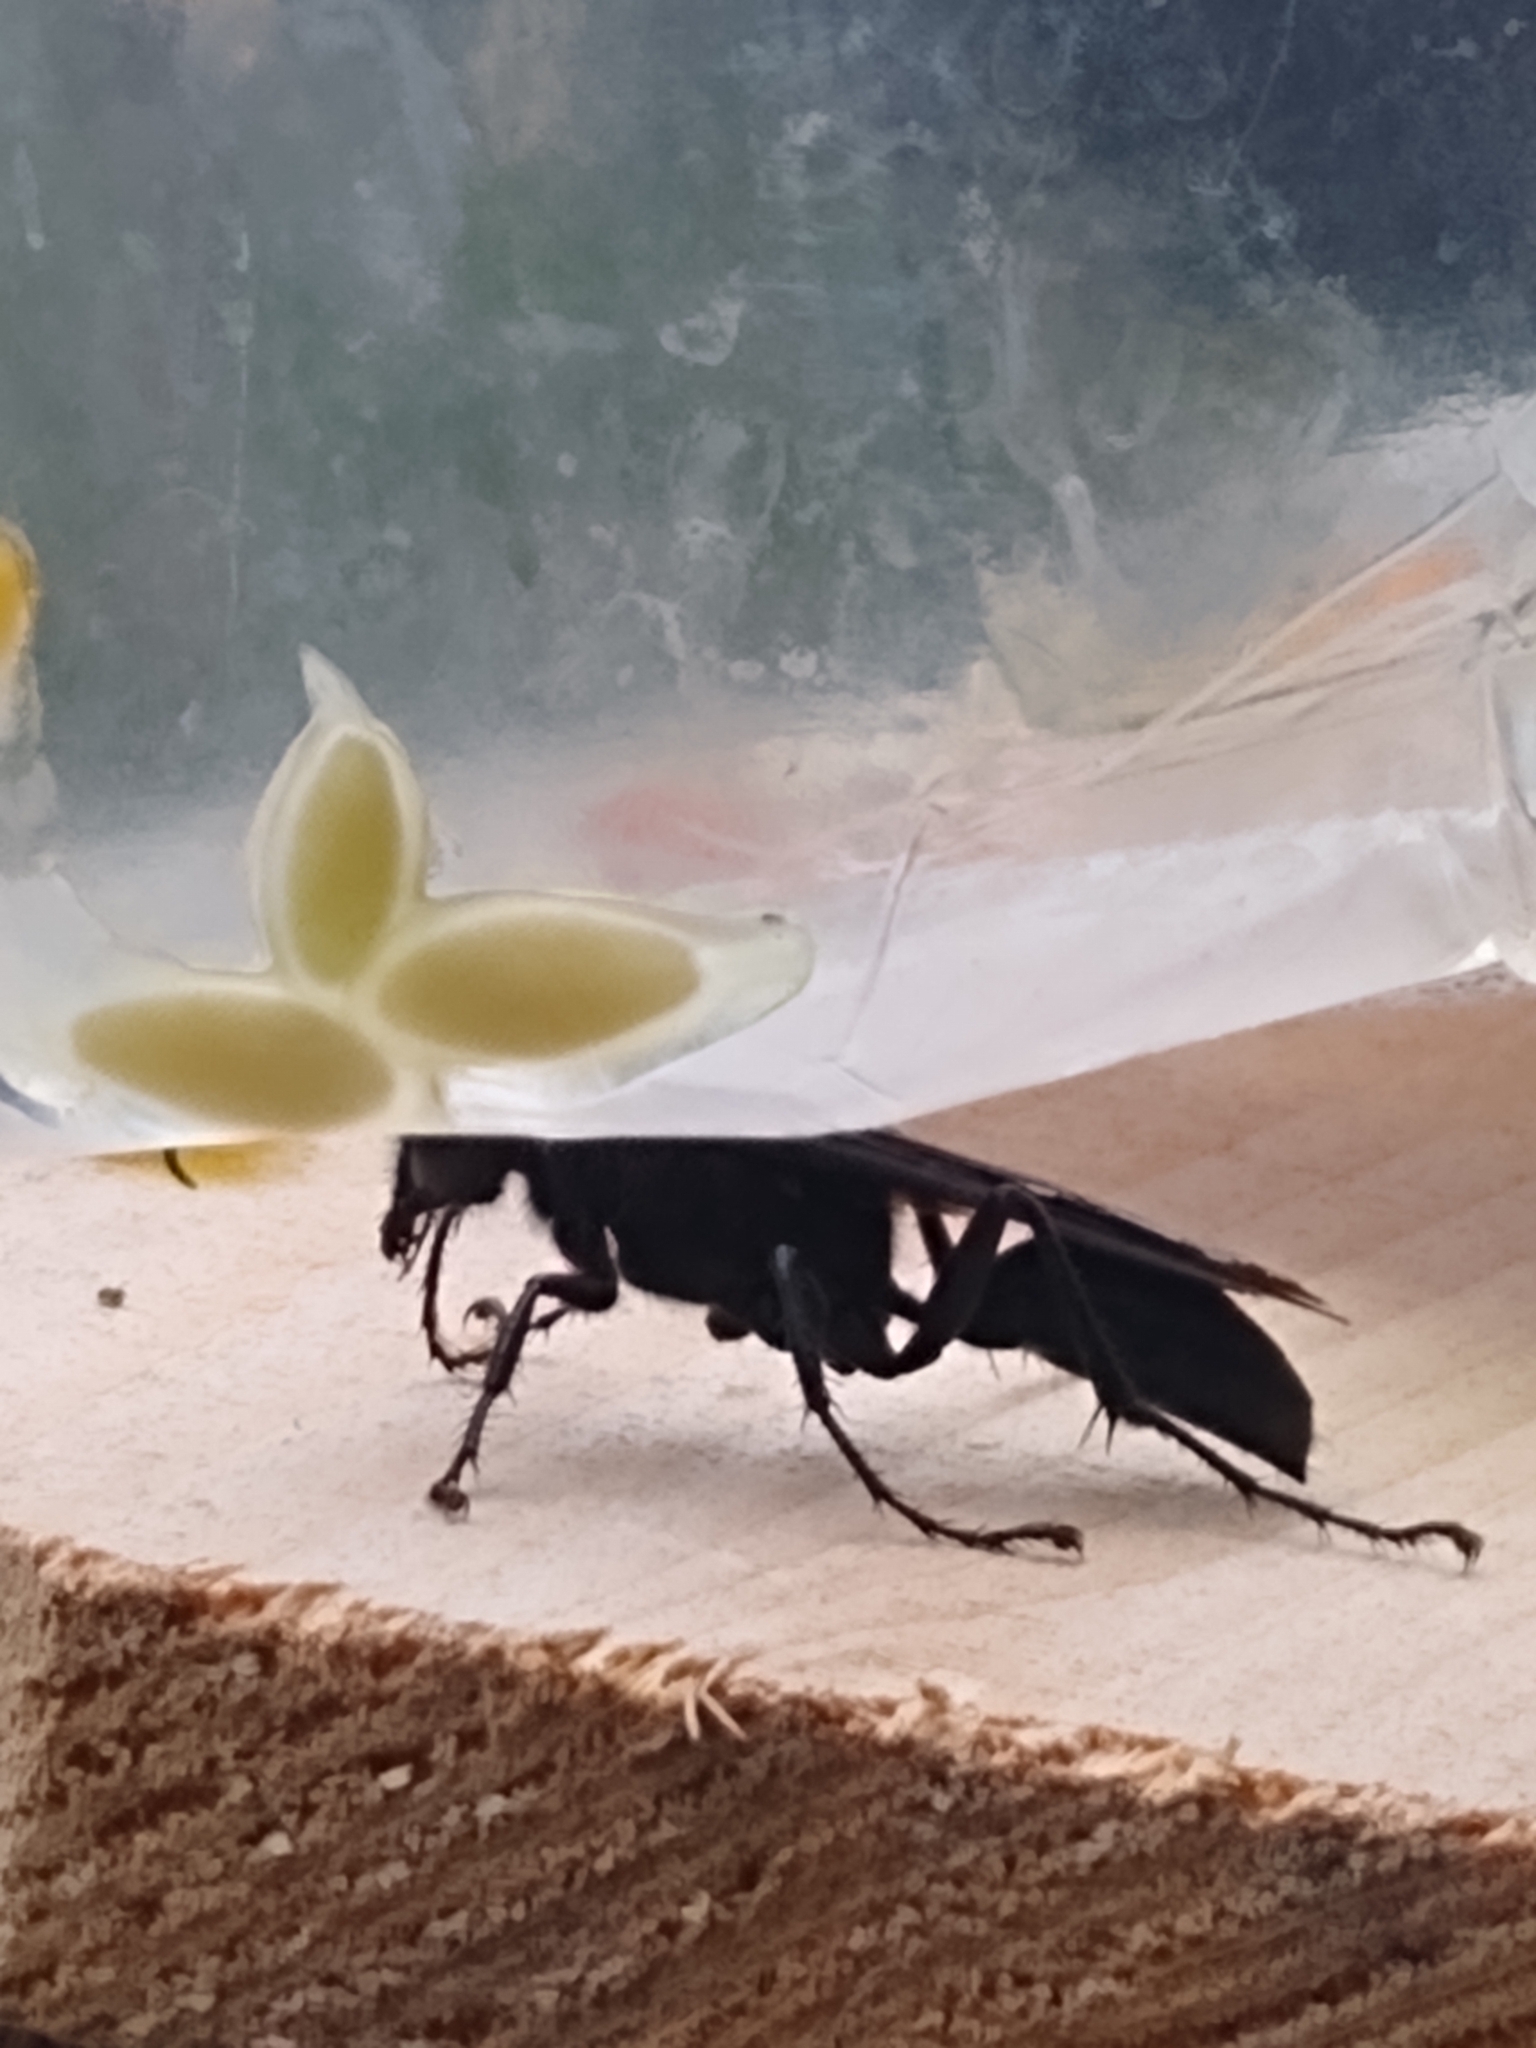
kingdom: Animalia
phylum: Arthropoda
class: Insecta
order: Hymenoptera
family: Sphecidae
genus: Sphex
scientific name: Sphex pensylvanicus
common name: Great black digger wasp
